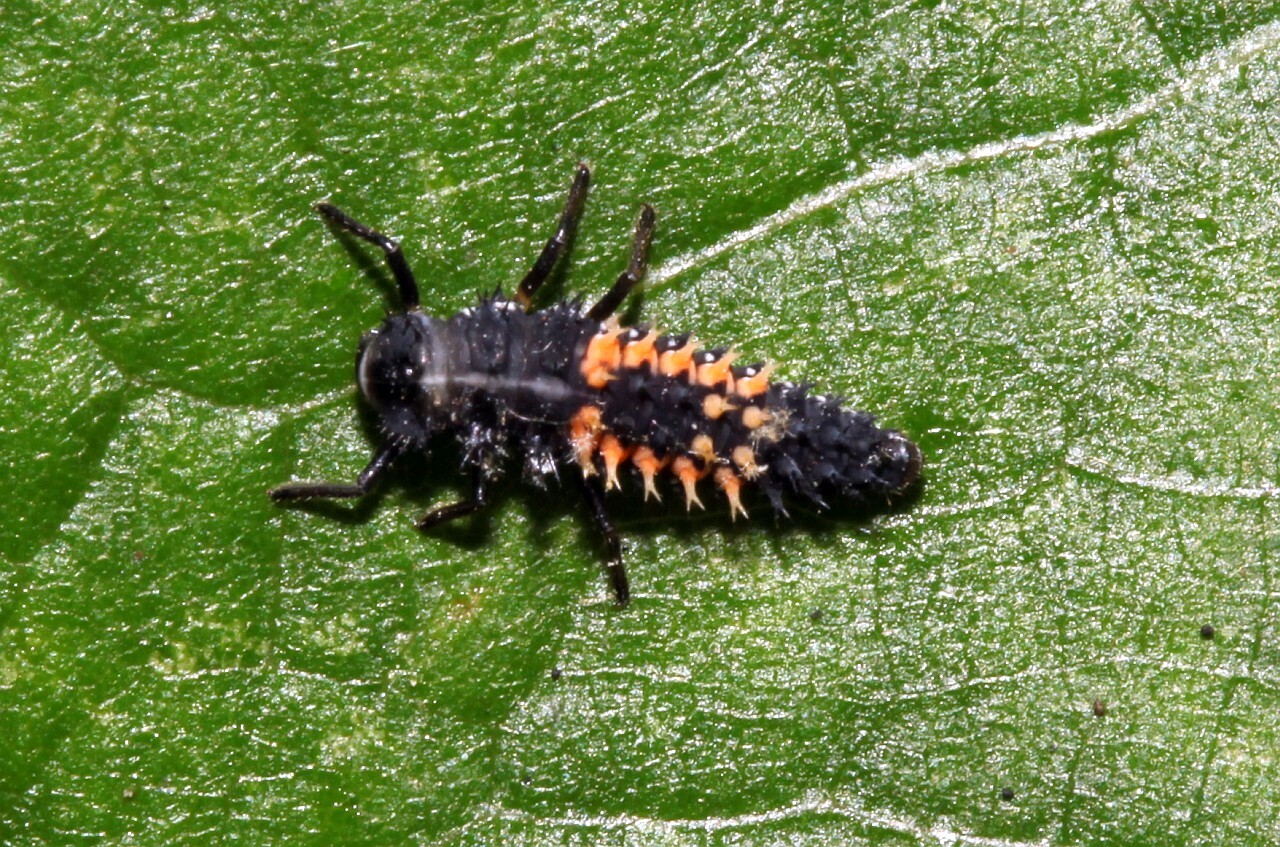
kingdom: Animalia
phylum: Arthropoda
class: Insecta
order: Coleoptera
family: Coccinellidae
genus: Harmonia
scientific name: Harmonia axyridis
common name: Harlequin ladybird
